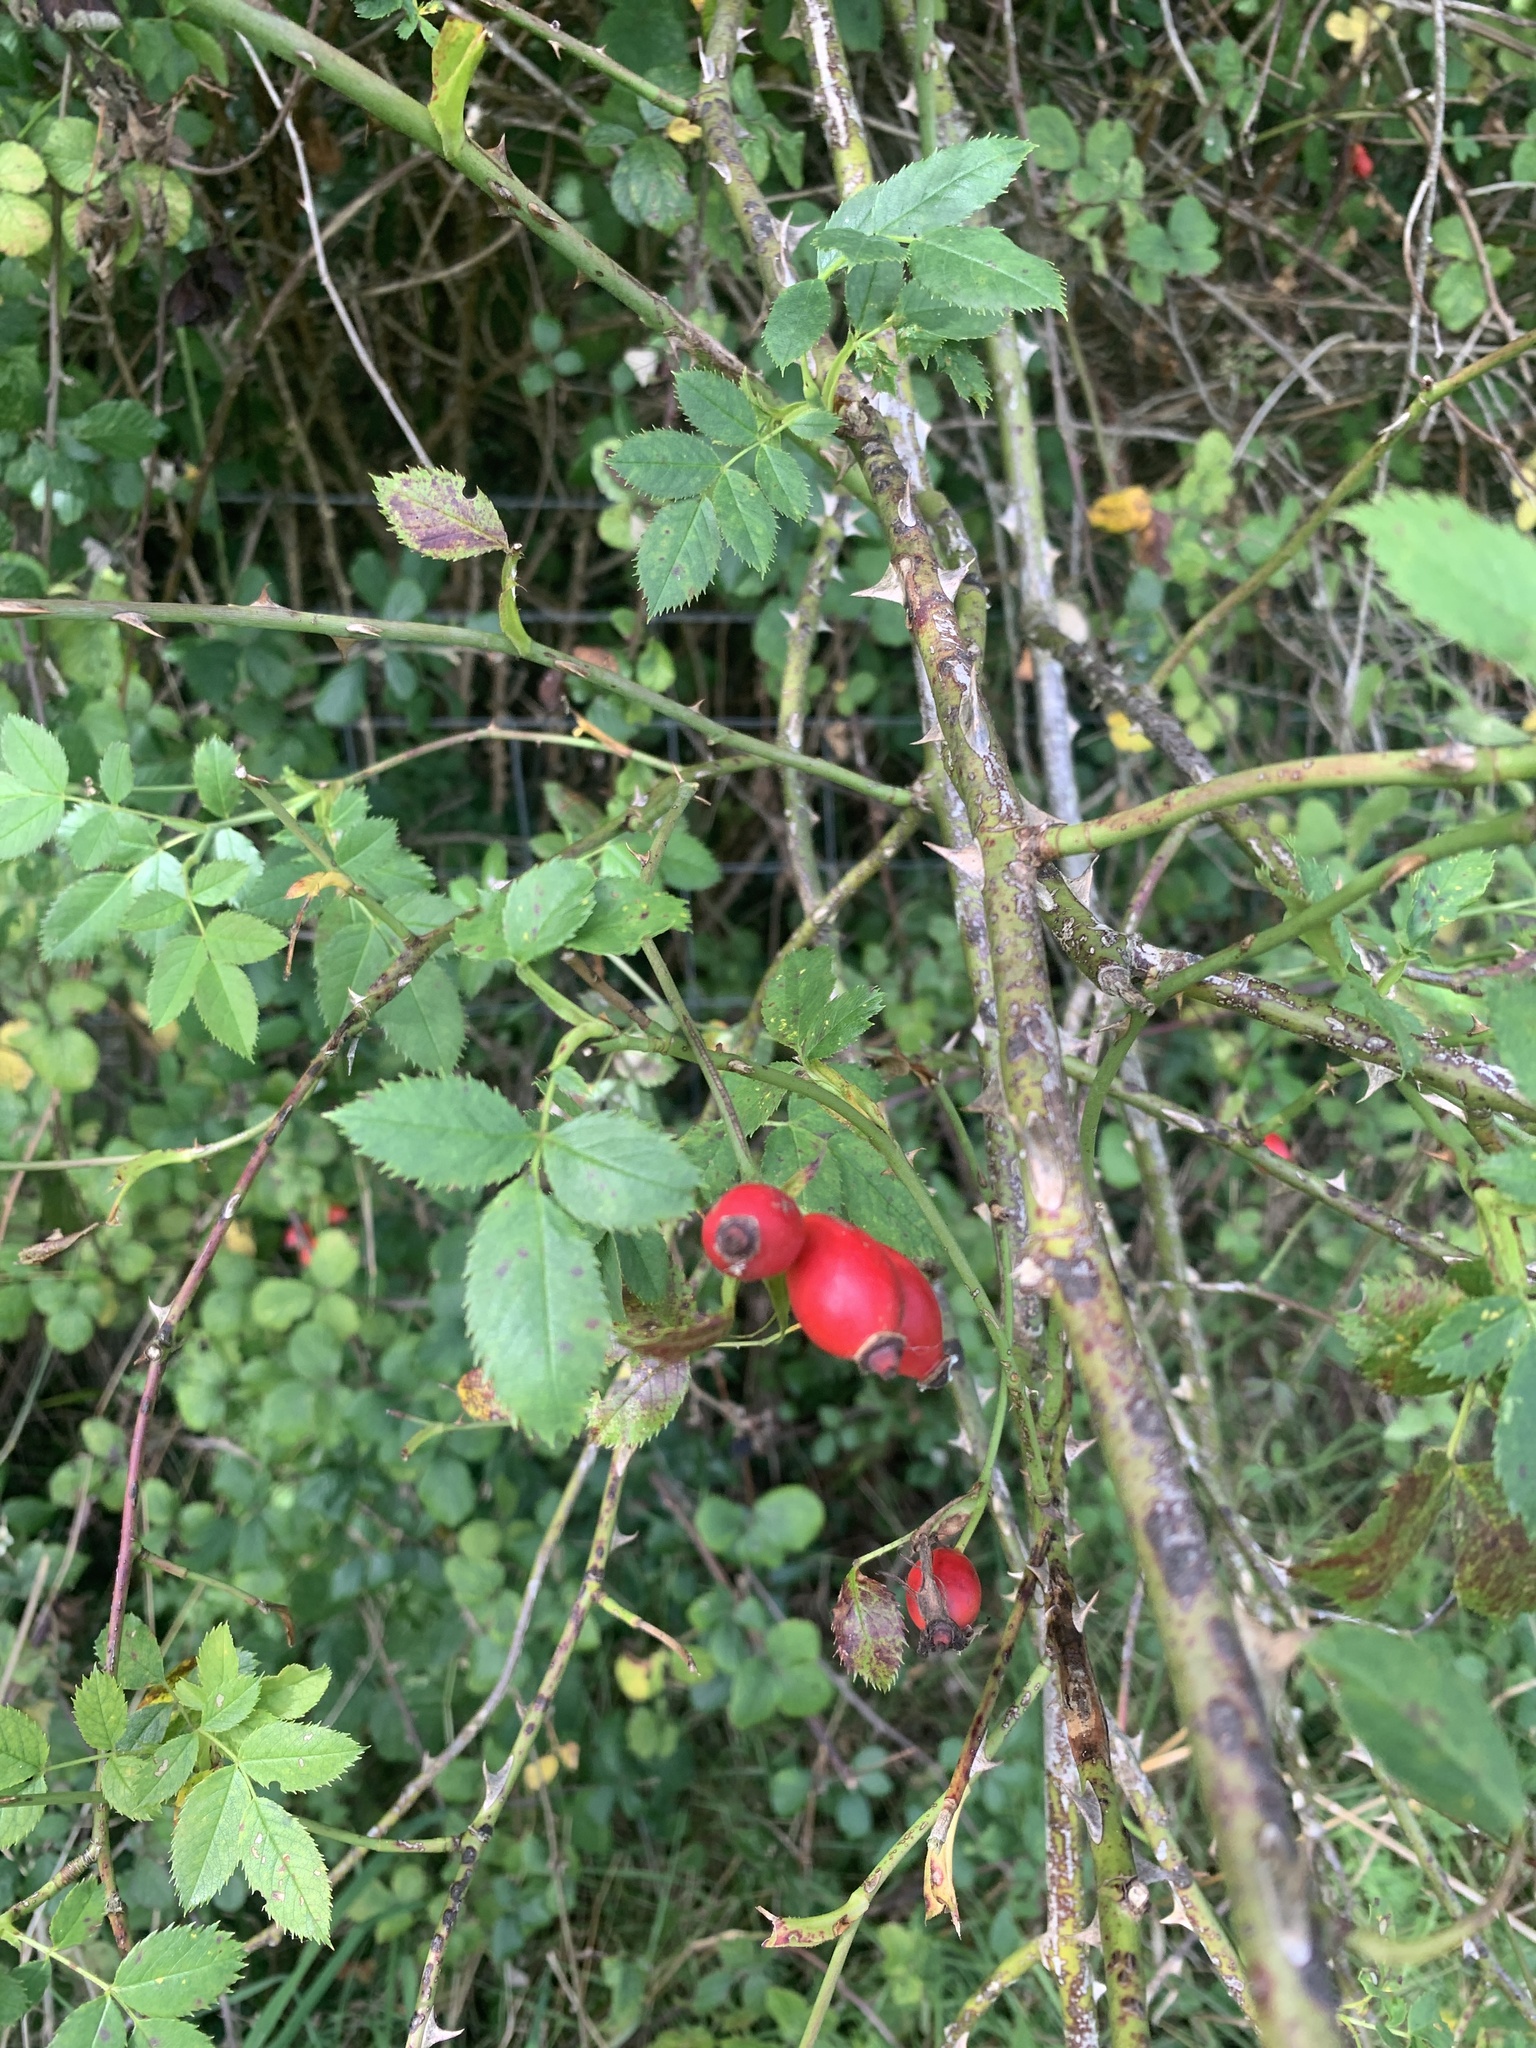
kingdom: Plantae
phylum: Tracheophyta
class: Magnoliopsida
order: Rosales
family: Rosaceae
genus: Rosa
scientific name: Rosa canina
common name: Dog rose
